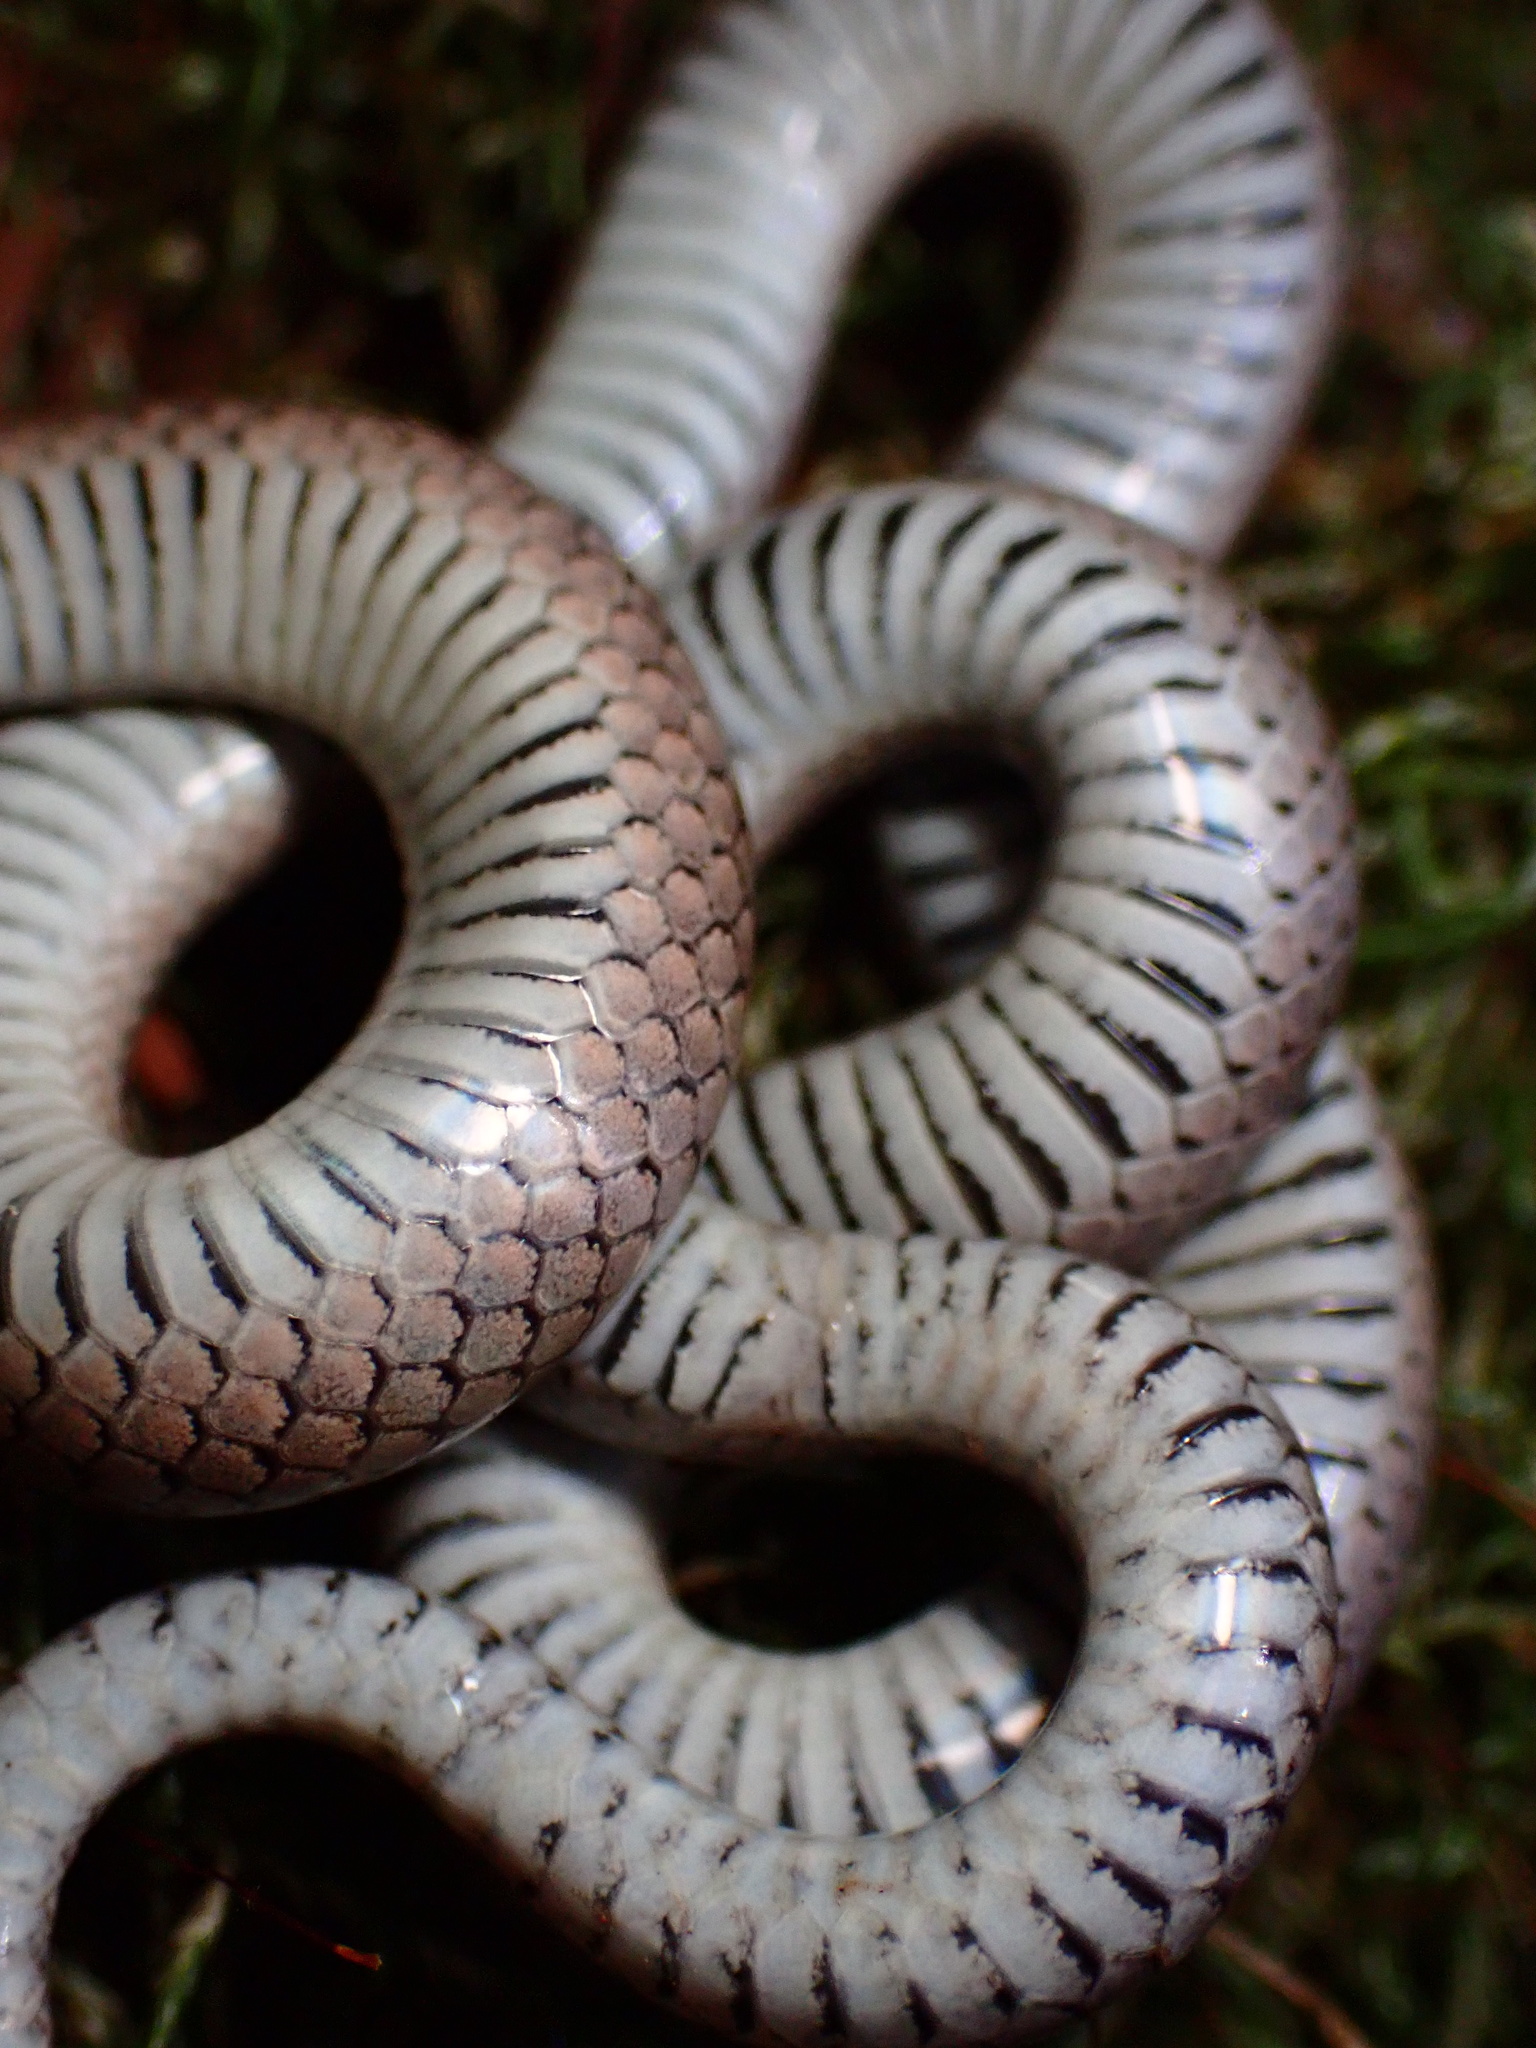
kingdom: Animalia
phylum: Chordata
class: Squamata
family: Colubridae
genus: Contia
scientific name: Contia longicaudae
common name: Forest sharp-tailed snake
